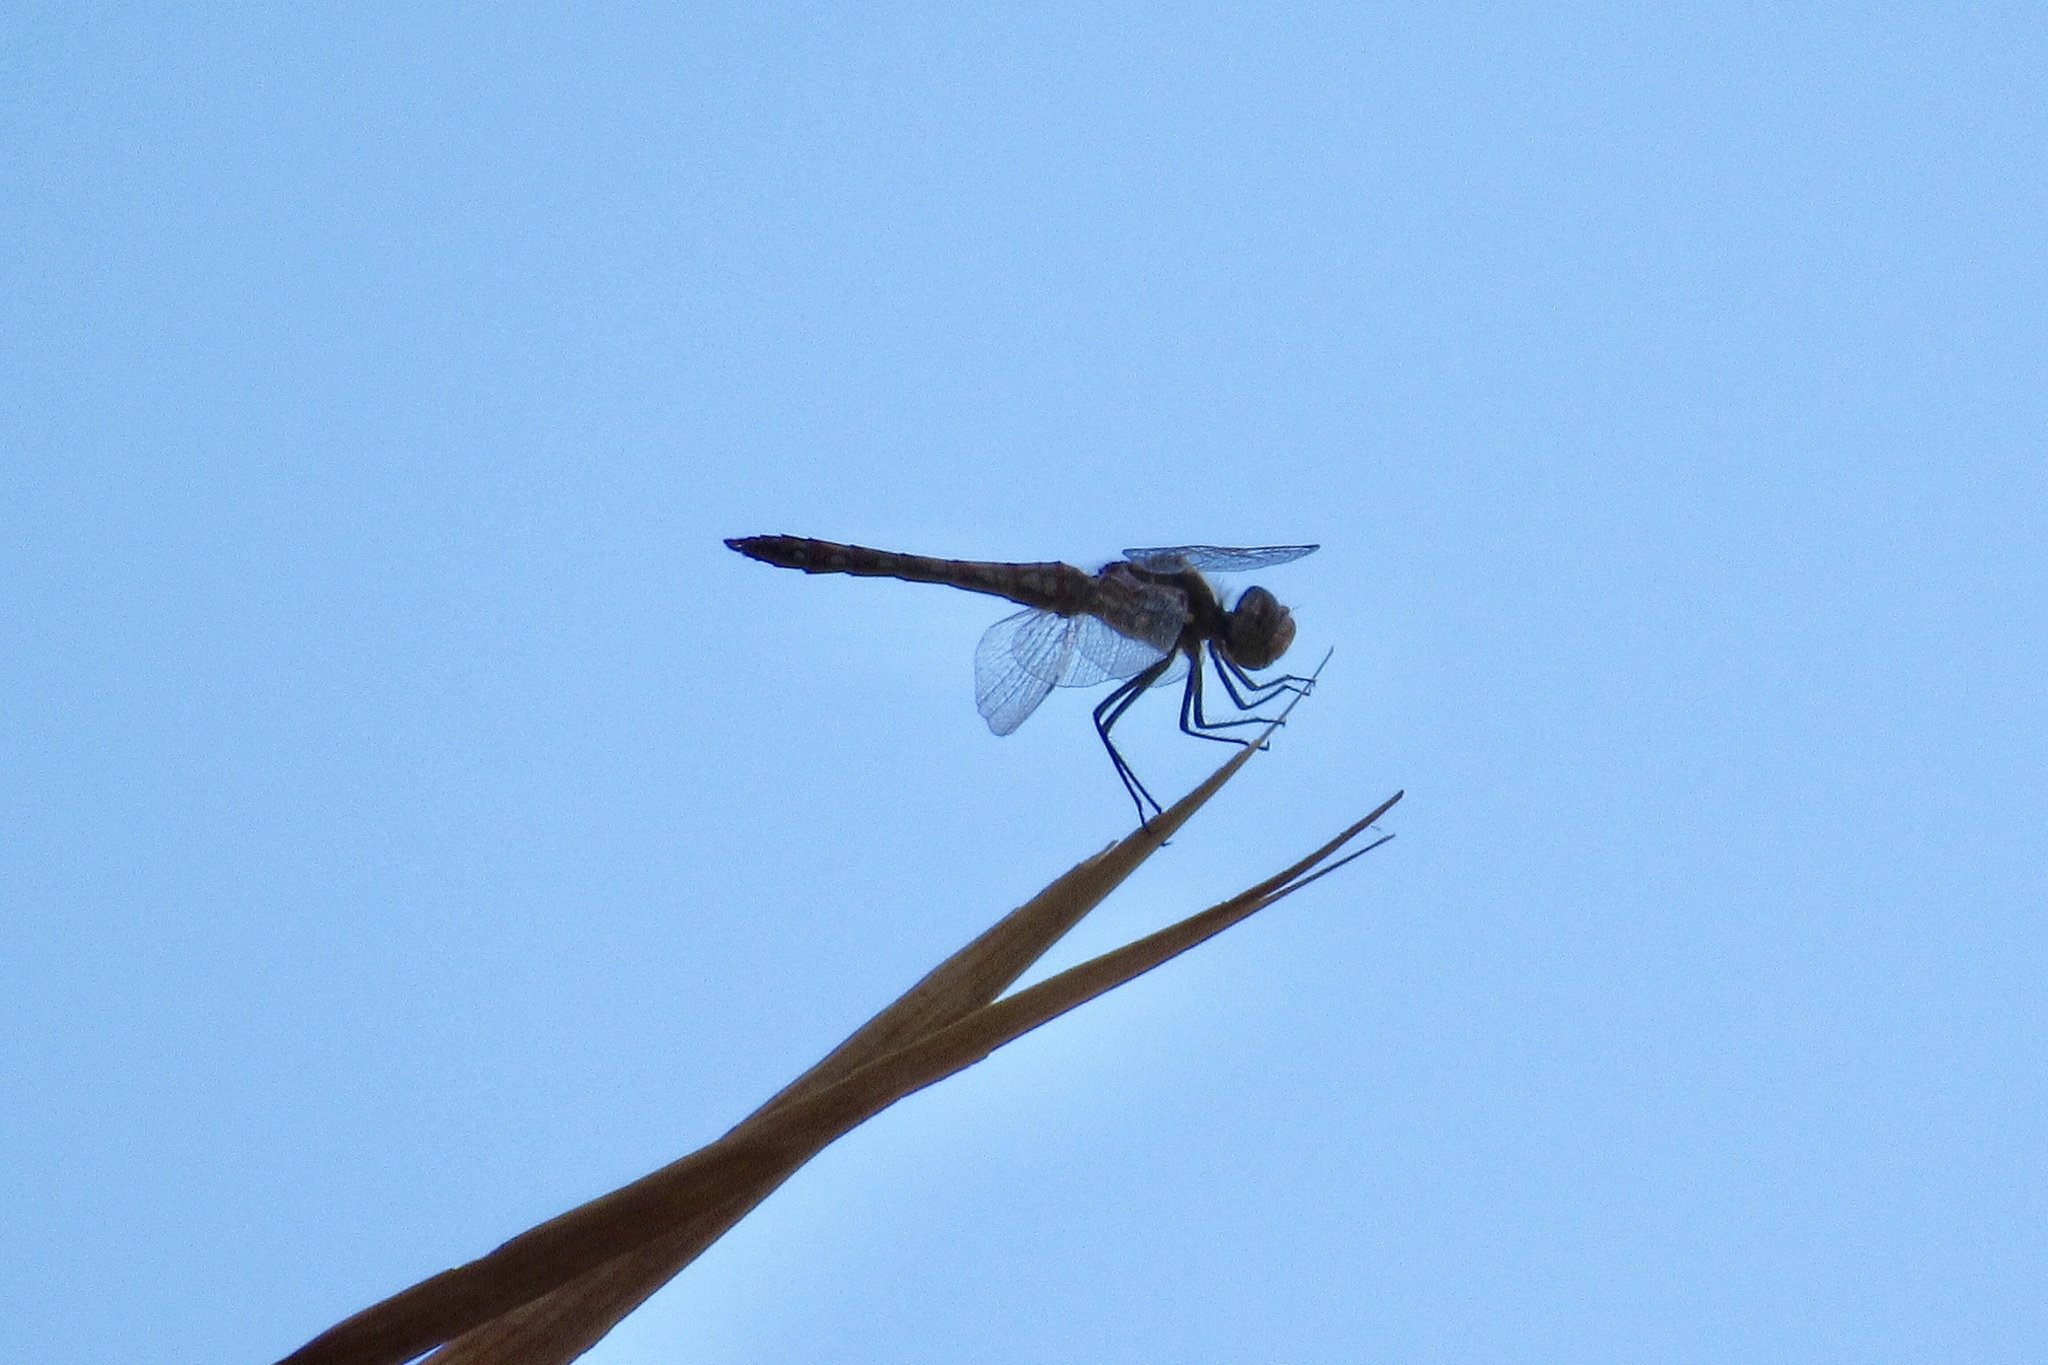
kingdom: Animalia
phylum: Arthropoda
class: Insecta
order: Odonata
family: Libellulidae
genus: Sympetrum
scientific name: Sympetrum corruptum
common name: Variegated meadowhawk
